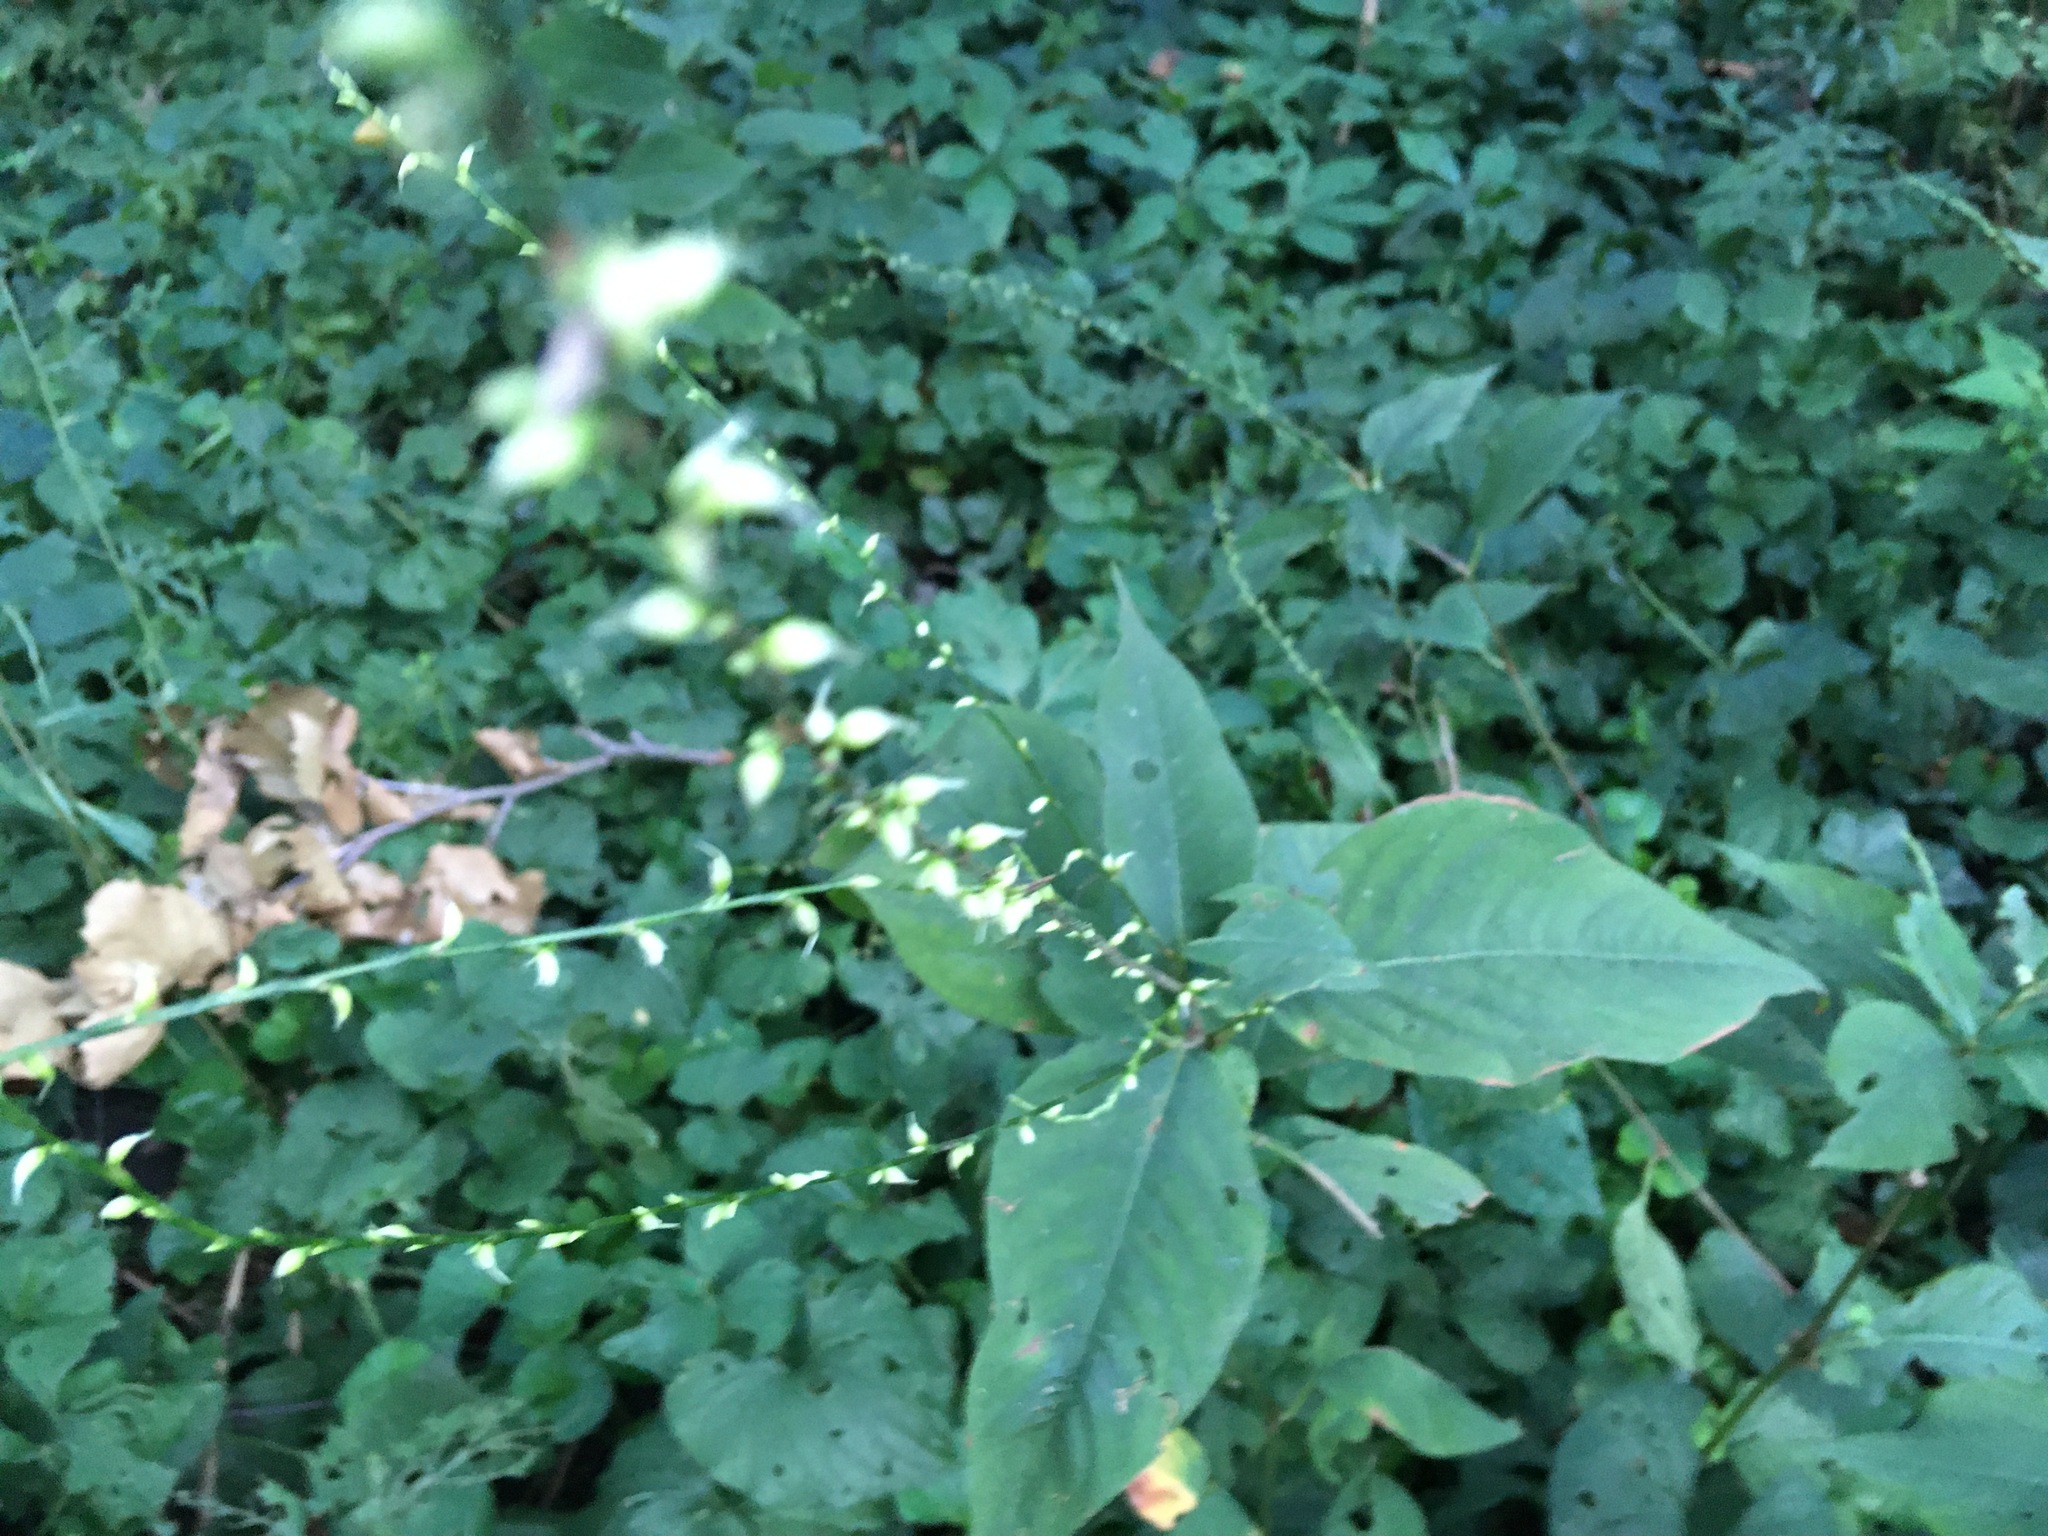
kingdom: Plantae
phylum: Tracheophyta
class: Magnoliopsida
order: Caryophyllales
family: Polygonaceae
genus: Persicaria
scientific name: Persicaria virginiana
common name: Jumpseed
